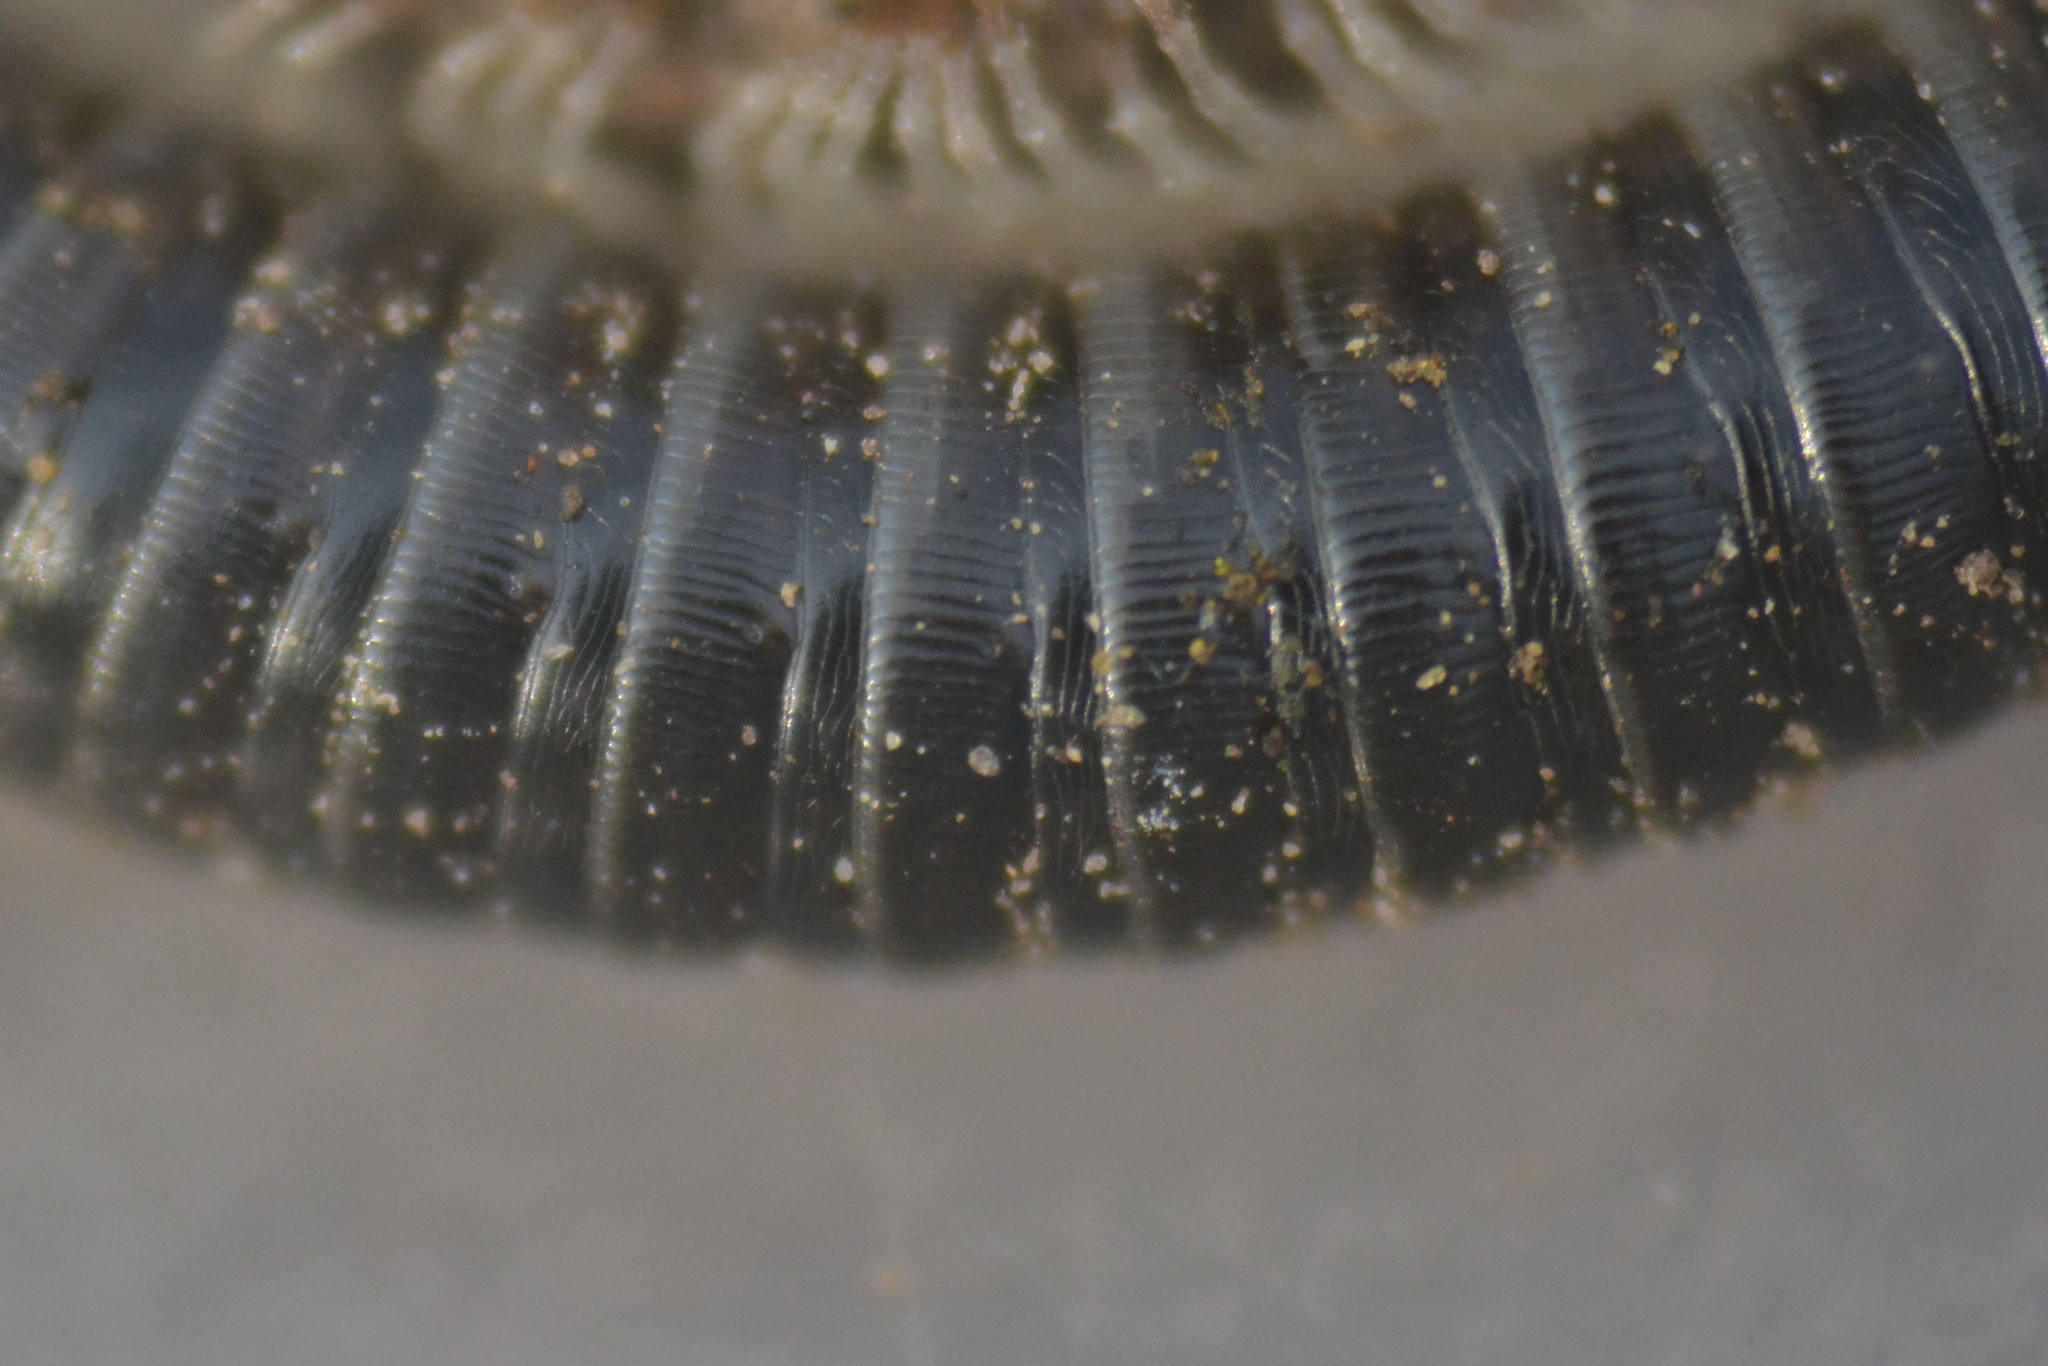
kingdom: Animalia
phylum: Arthropoda
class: Diplopoda
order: Julida
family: Julidae
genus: Tachypodoiulus
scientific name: Tachypodoiulus niger
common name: White-legged snake millipede
